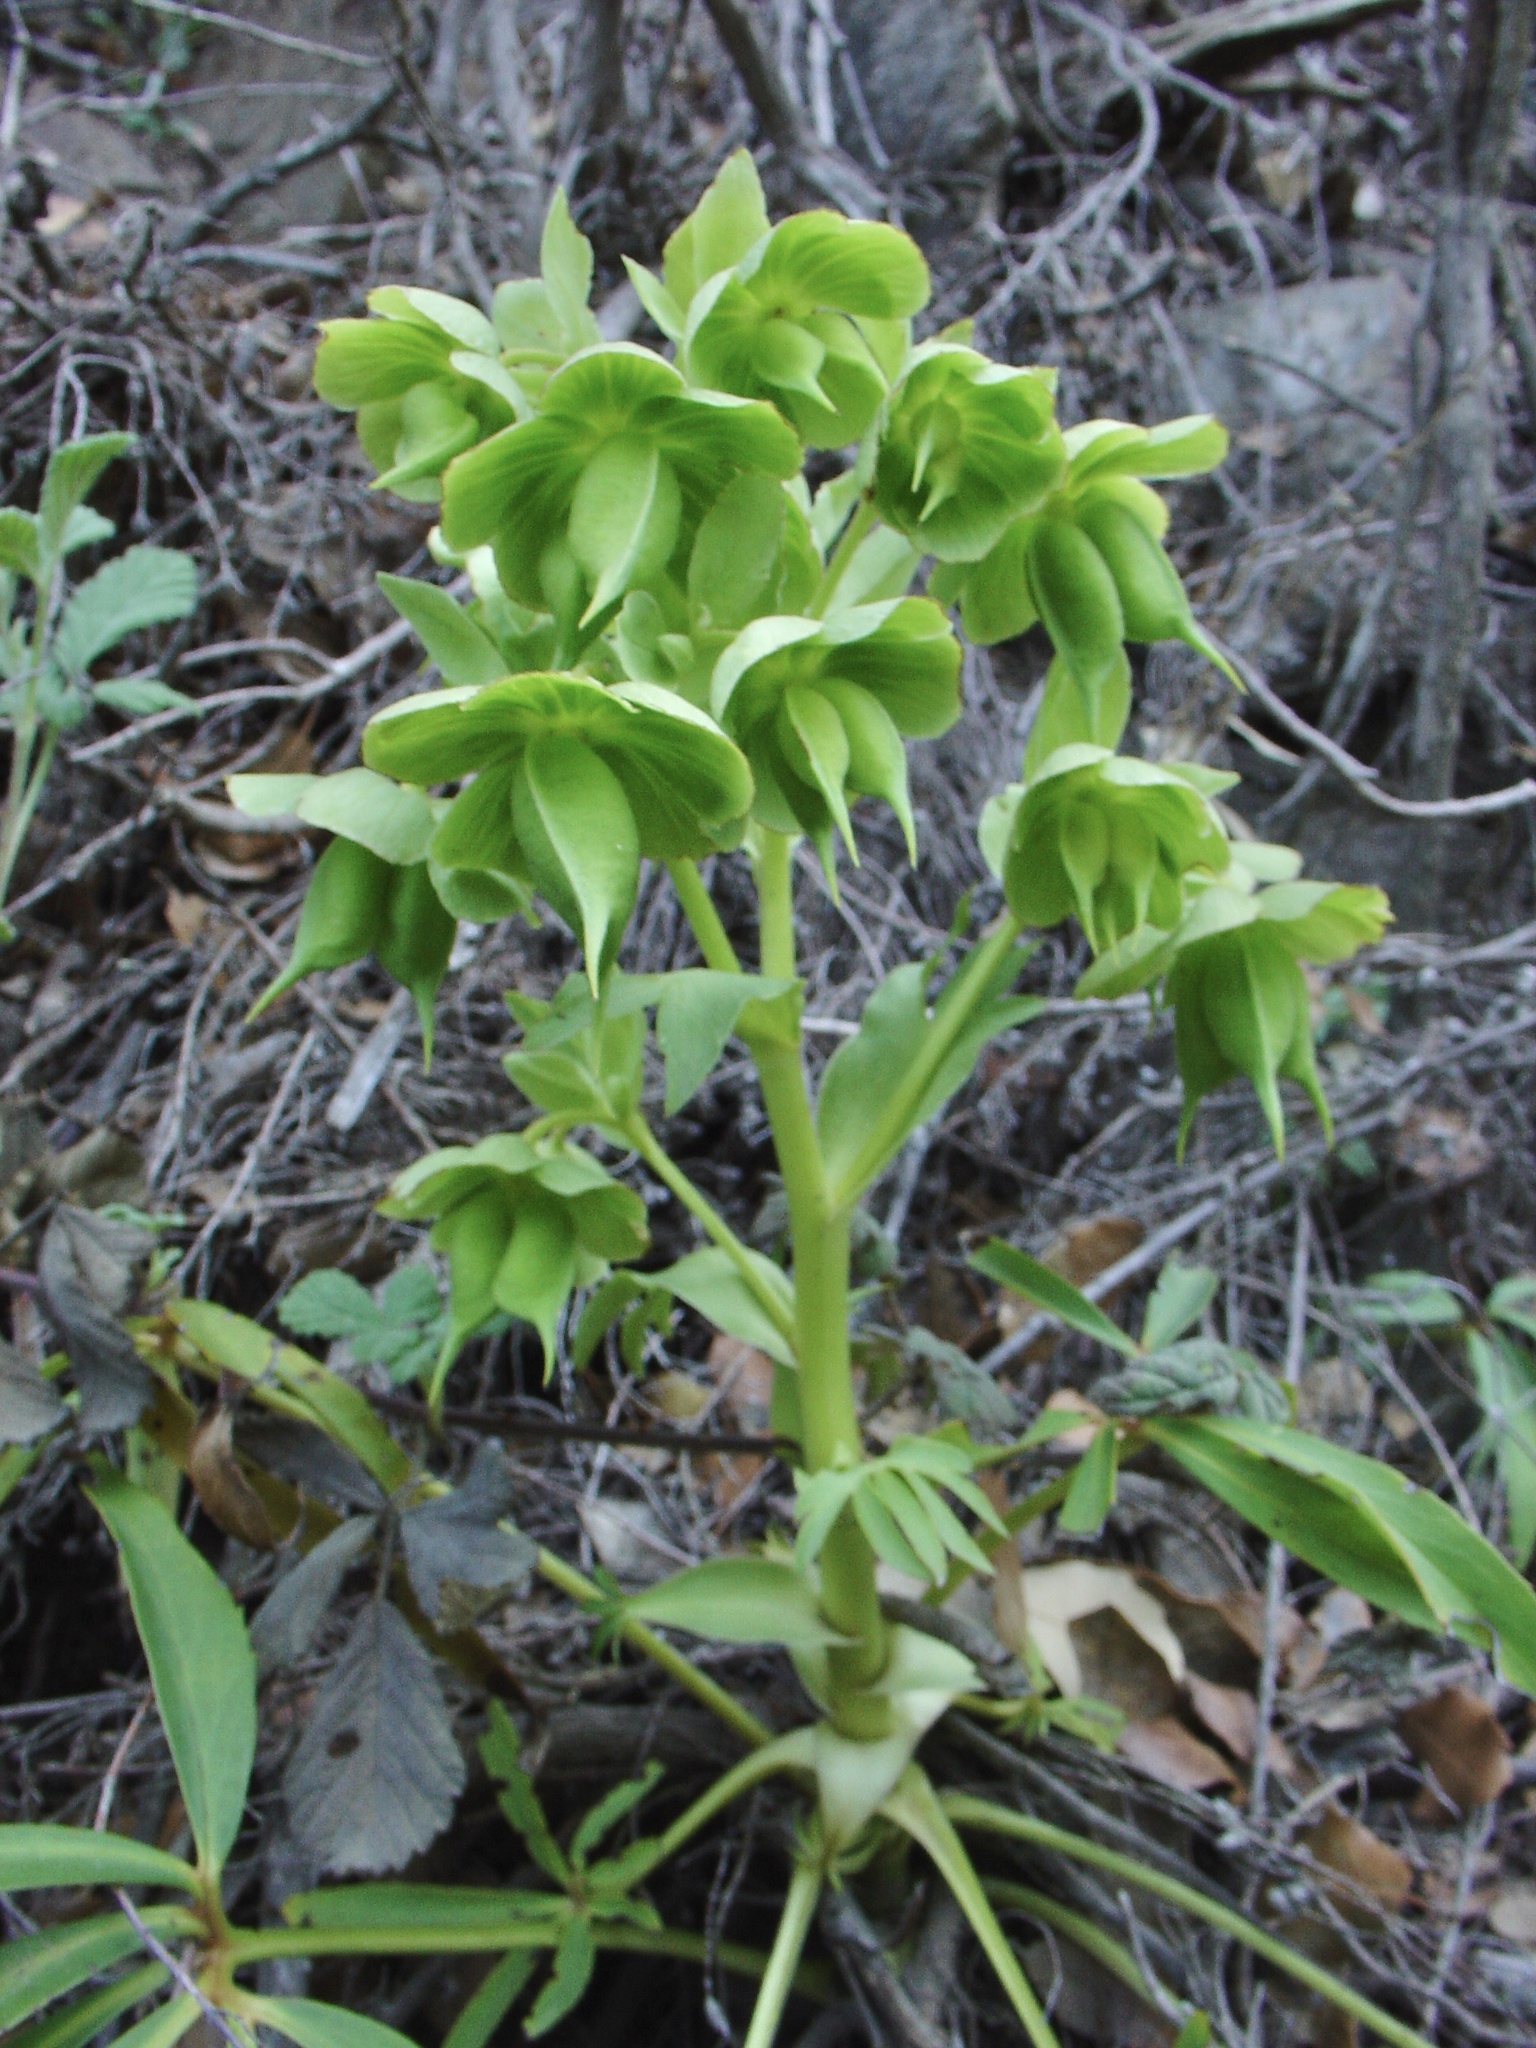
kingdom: Plantae
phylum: Tracheophyta
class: Magnoliopsida
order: Ranunculales
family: Ranunculaceae
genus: Helleborus
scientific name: Helleborus foetidus
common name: Stinking hellebore
